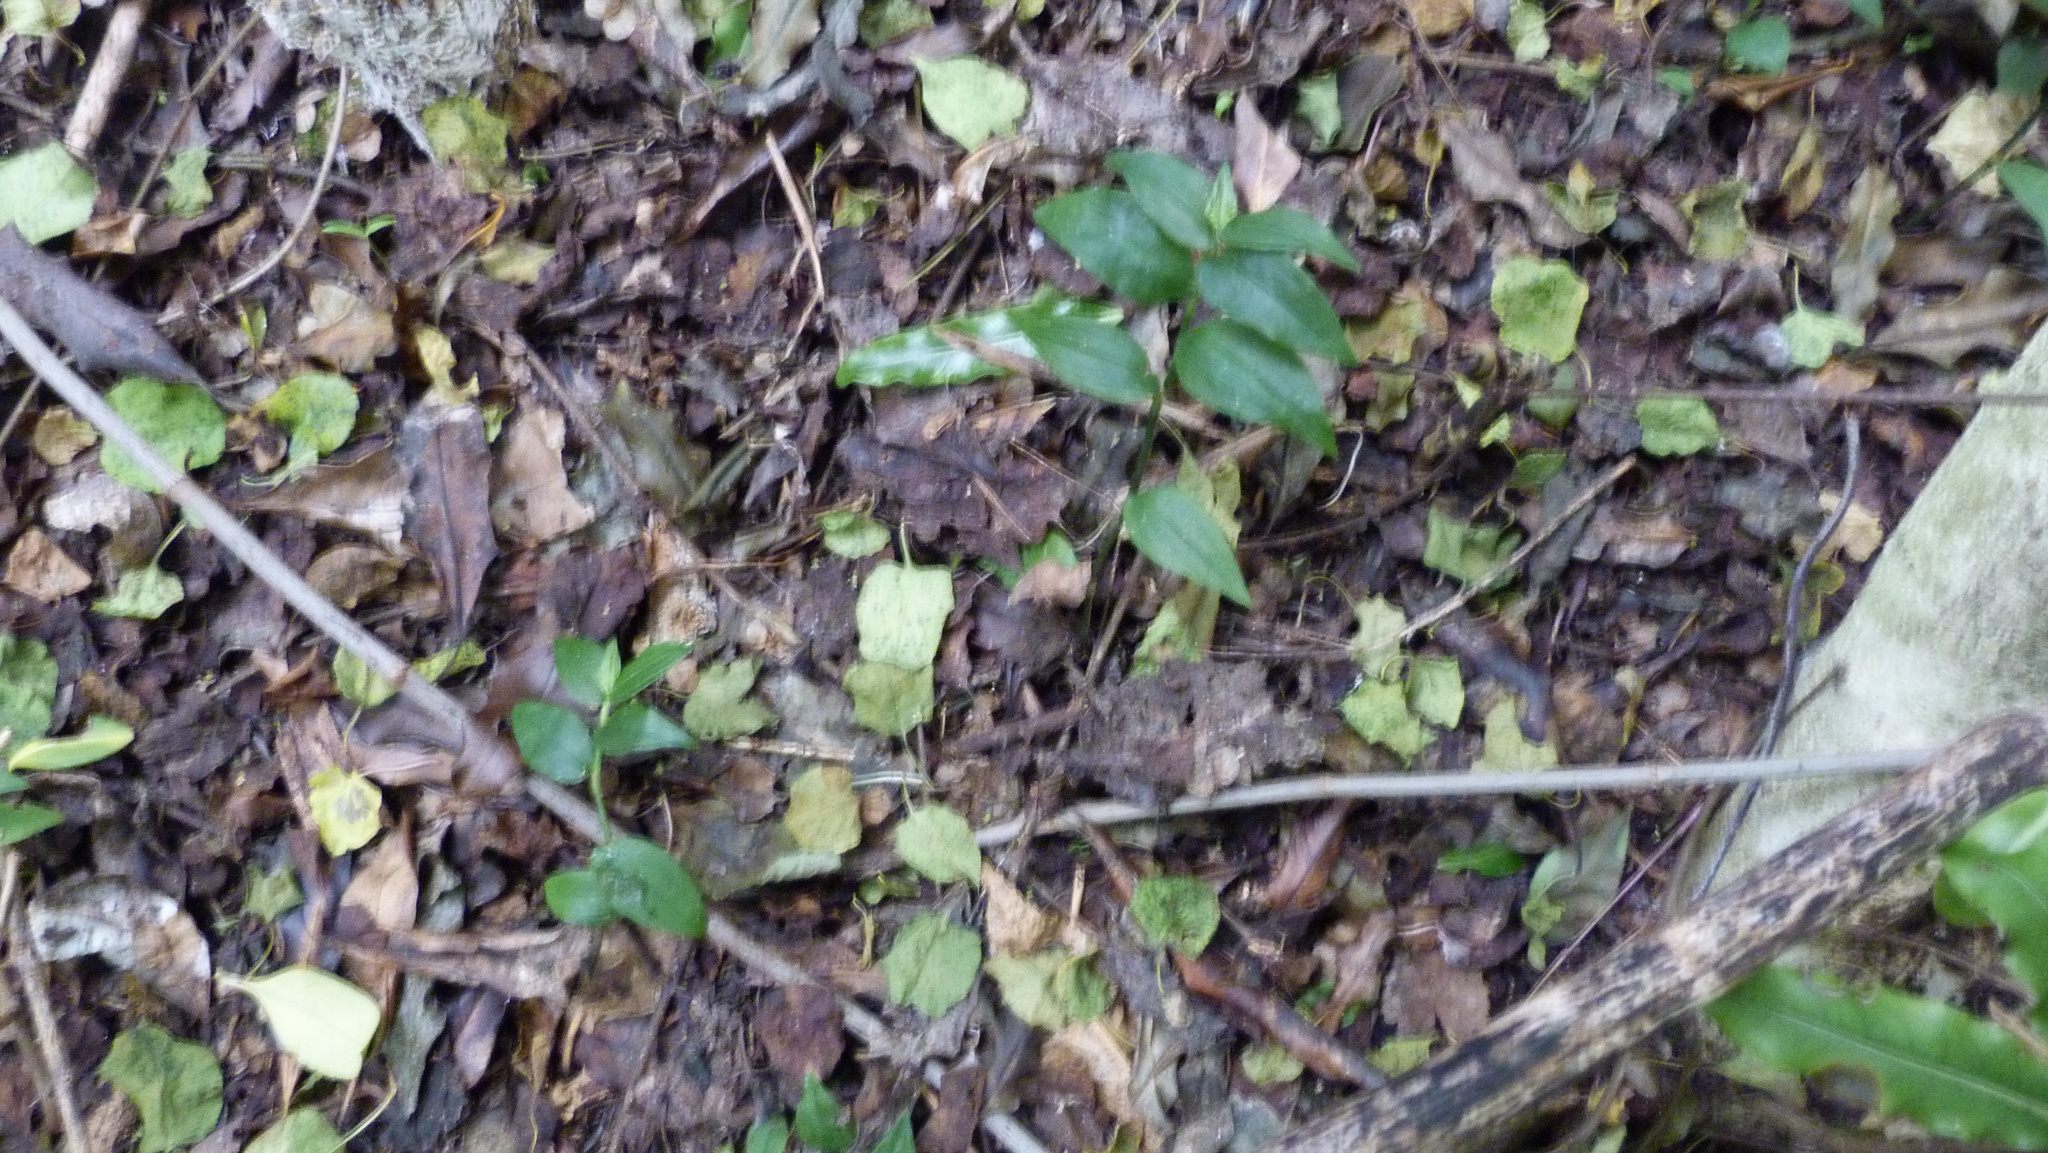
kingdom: Plantae
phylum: Tracheophyta
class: Liliopsida
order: Commelinales
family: Commelinaceae
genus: Tradescantia
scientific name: Tradescantia fluminensis
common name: Wandering-jew
